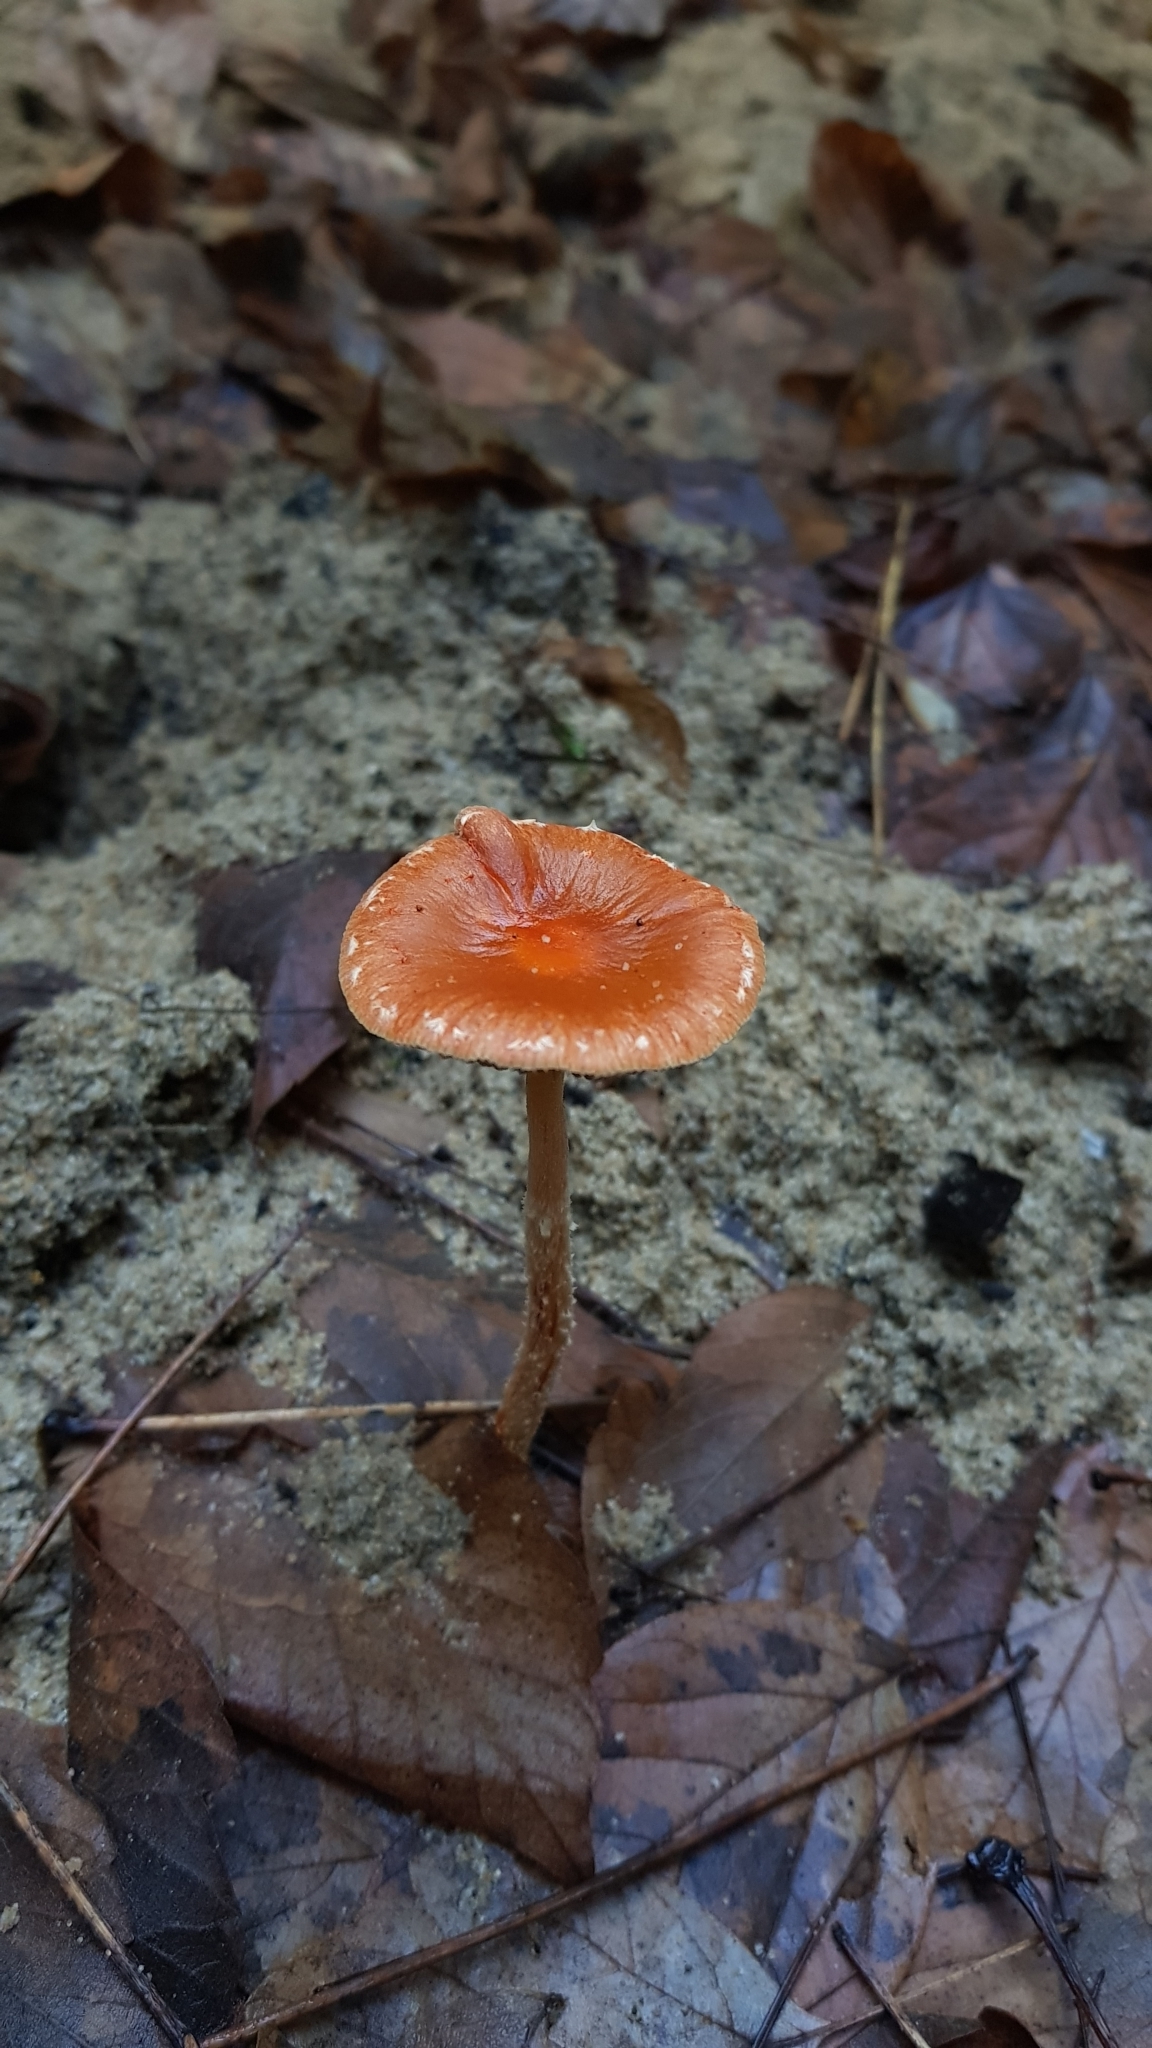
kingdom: Fungi
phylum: Basidiomycota
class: Agaricomycetes
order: Agaricales
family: Strophariaceae
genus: Leratiomyces
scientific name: Leratiomyces ceres
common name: Redlead roundhead
